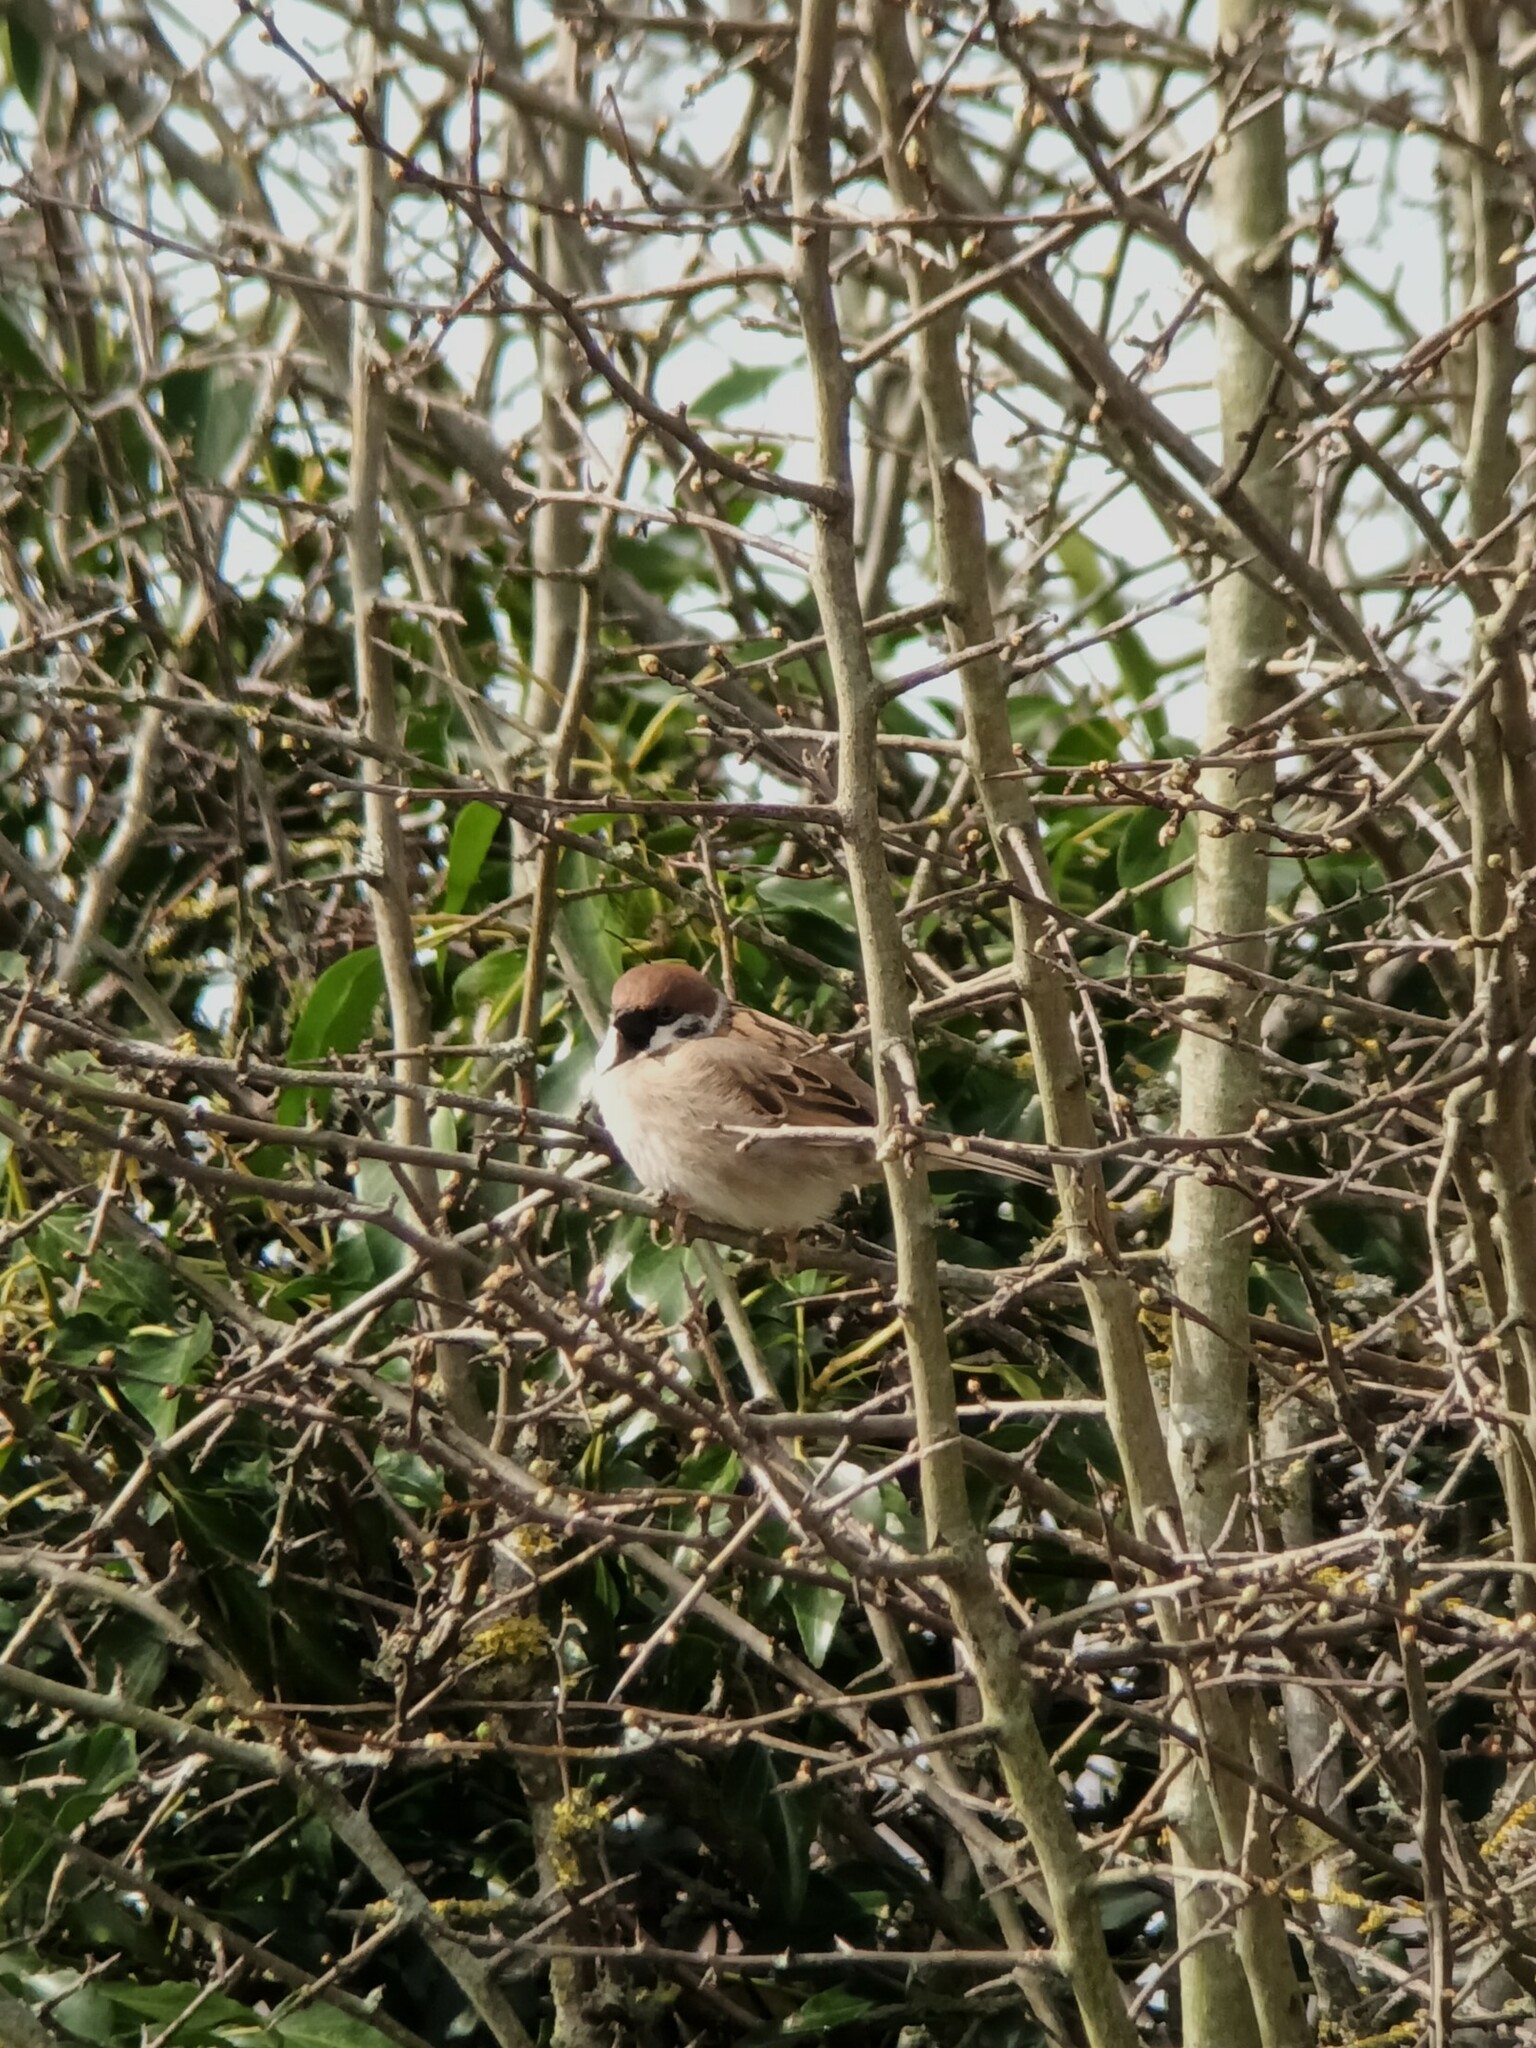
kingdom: Animalia
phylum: Chordata
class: Aves
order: Passeriformes
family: Passeridae
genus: Passer
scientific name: Passer montanus
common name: Eurasian tree sparrow
